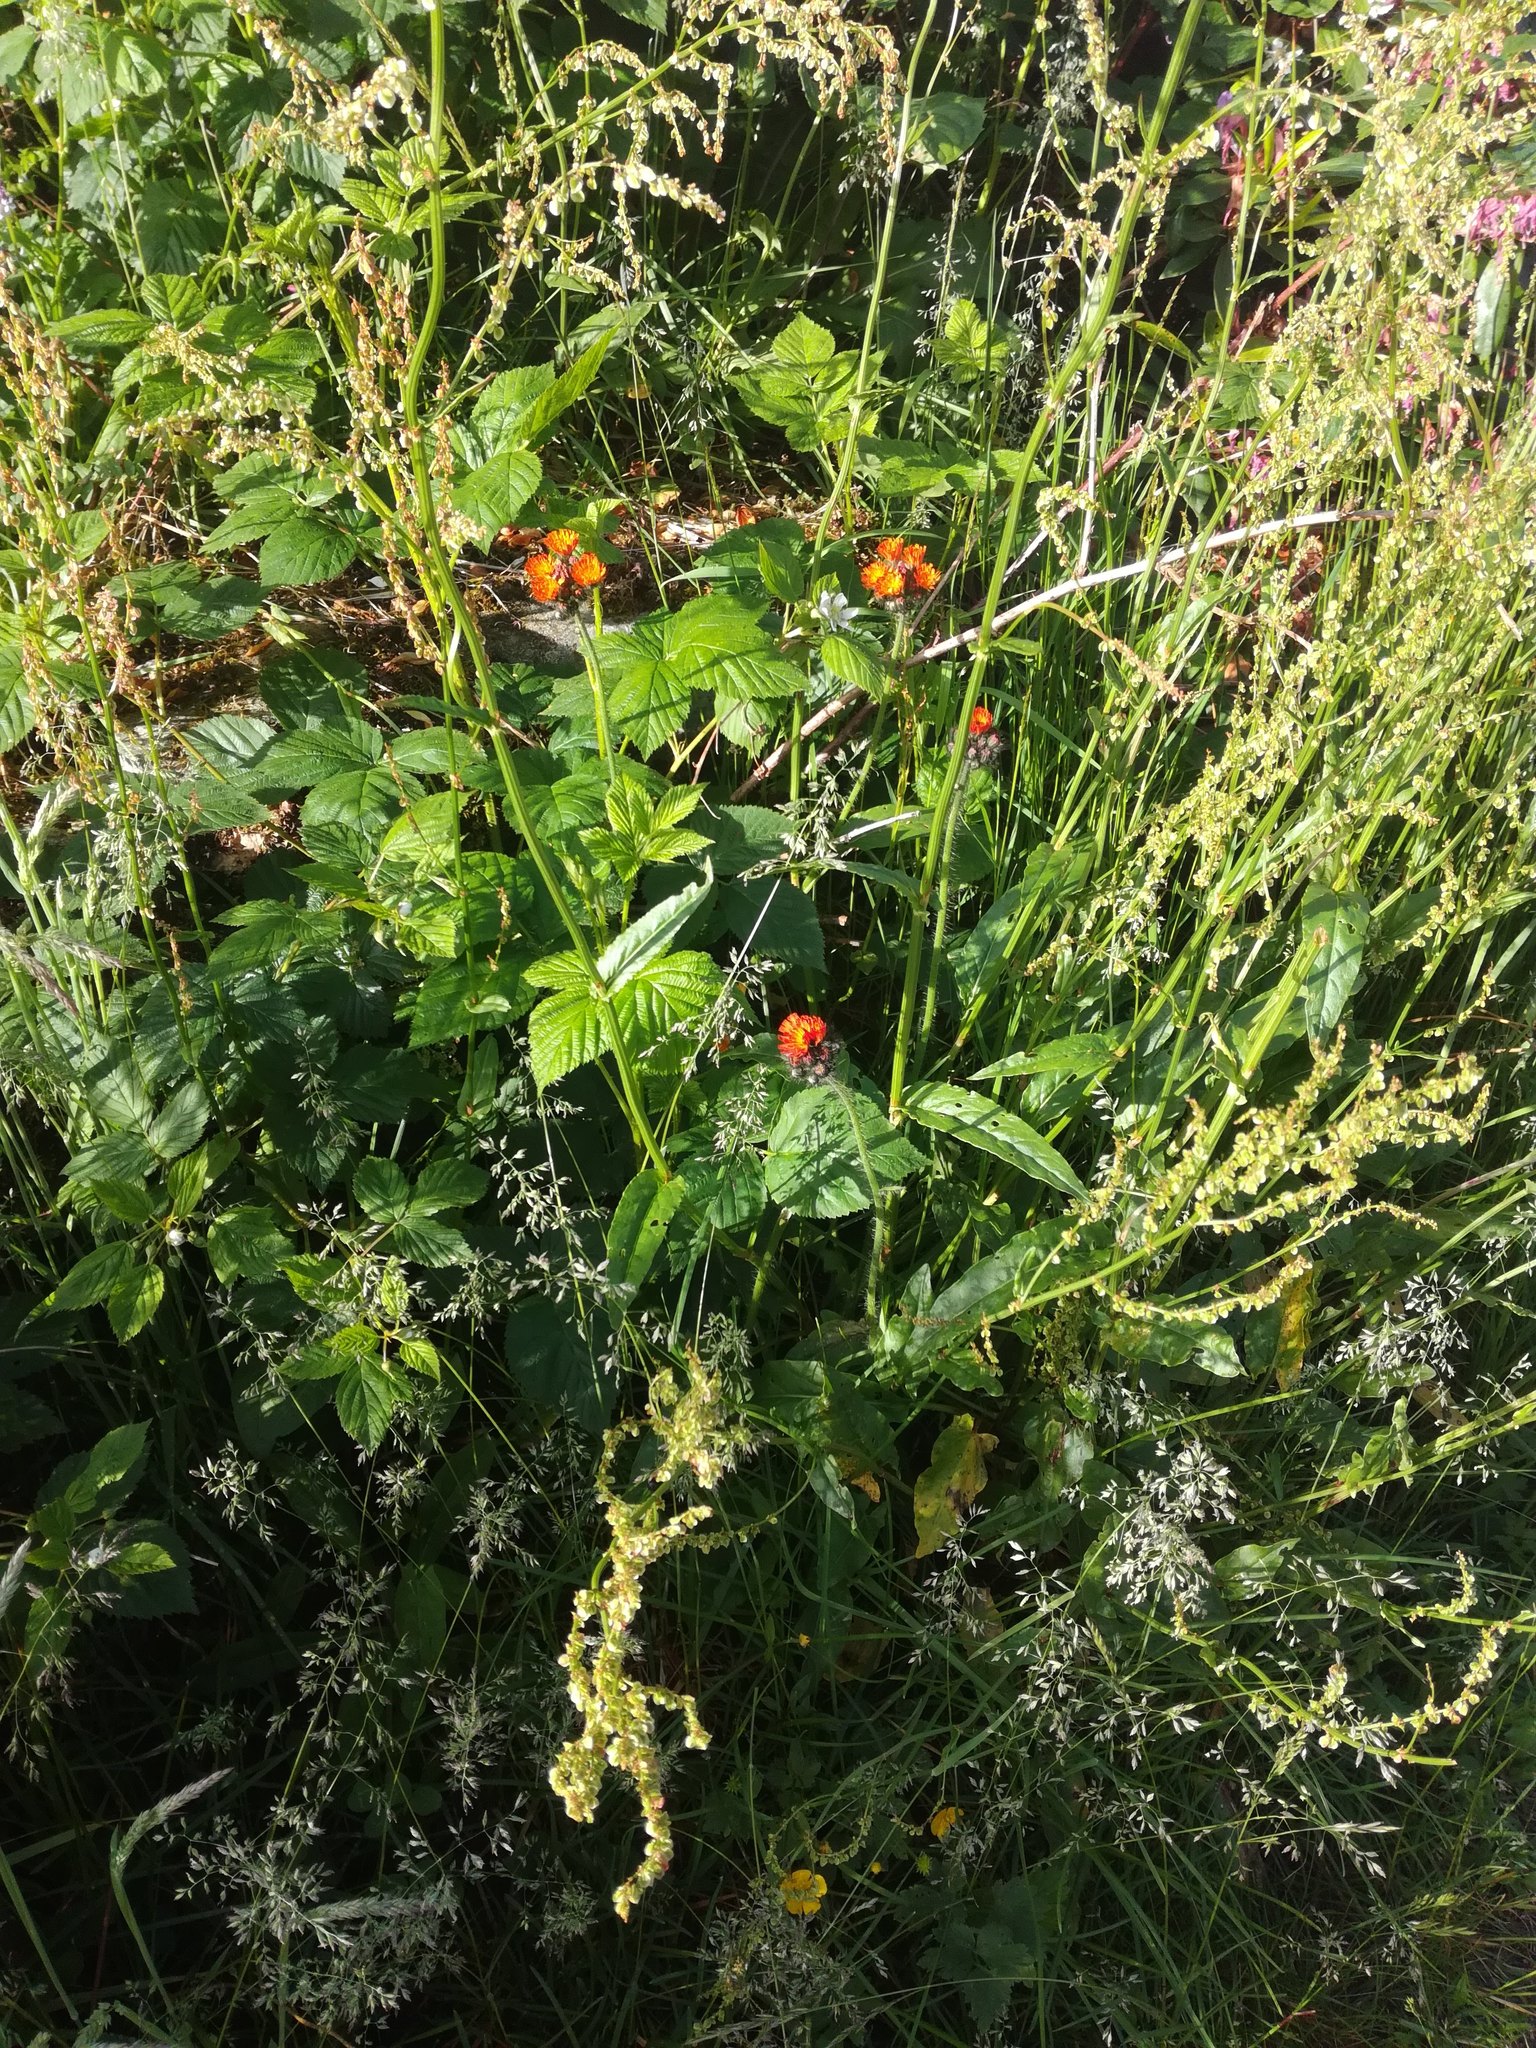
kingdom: Plantae
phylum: Tracheophyta
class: Magnoliopsida
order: Asterales
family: Asteraceae
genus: Pilosella
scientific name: Pilosella aurantiaca
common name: Fox-and-cubs
